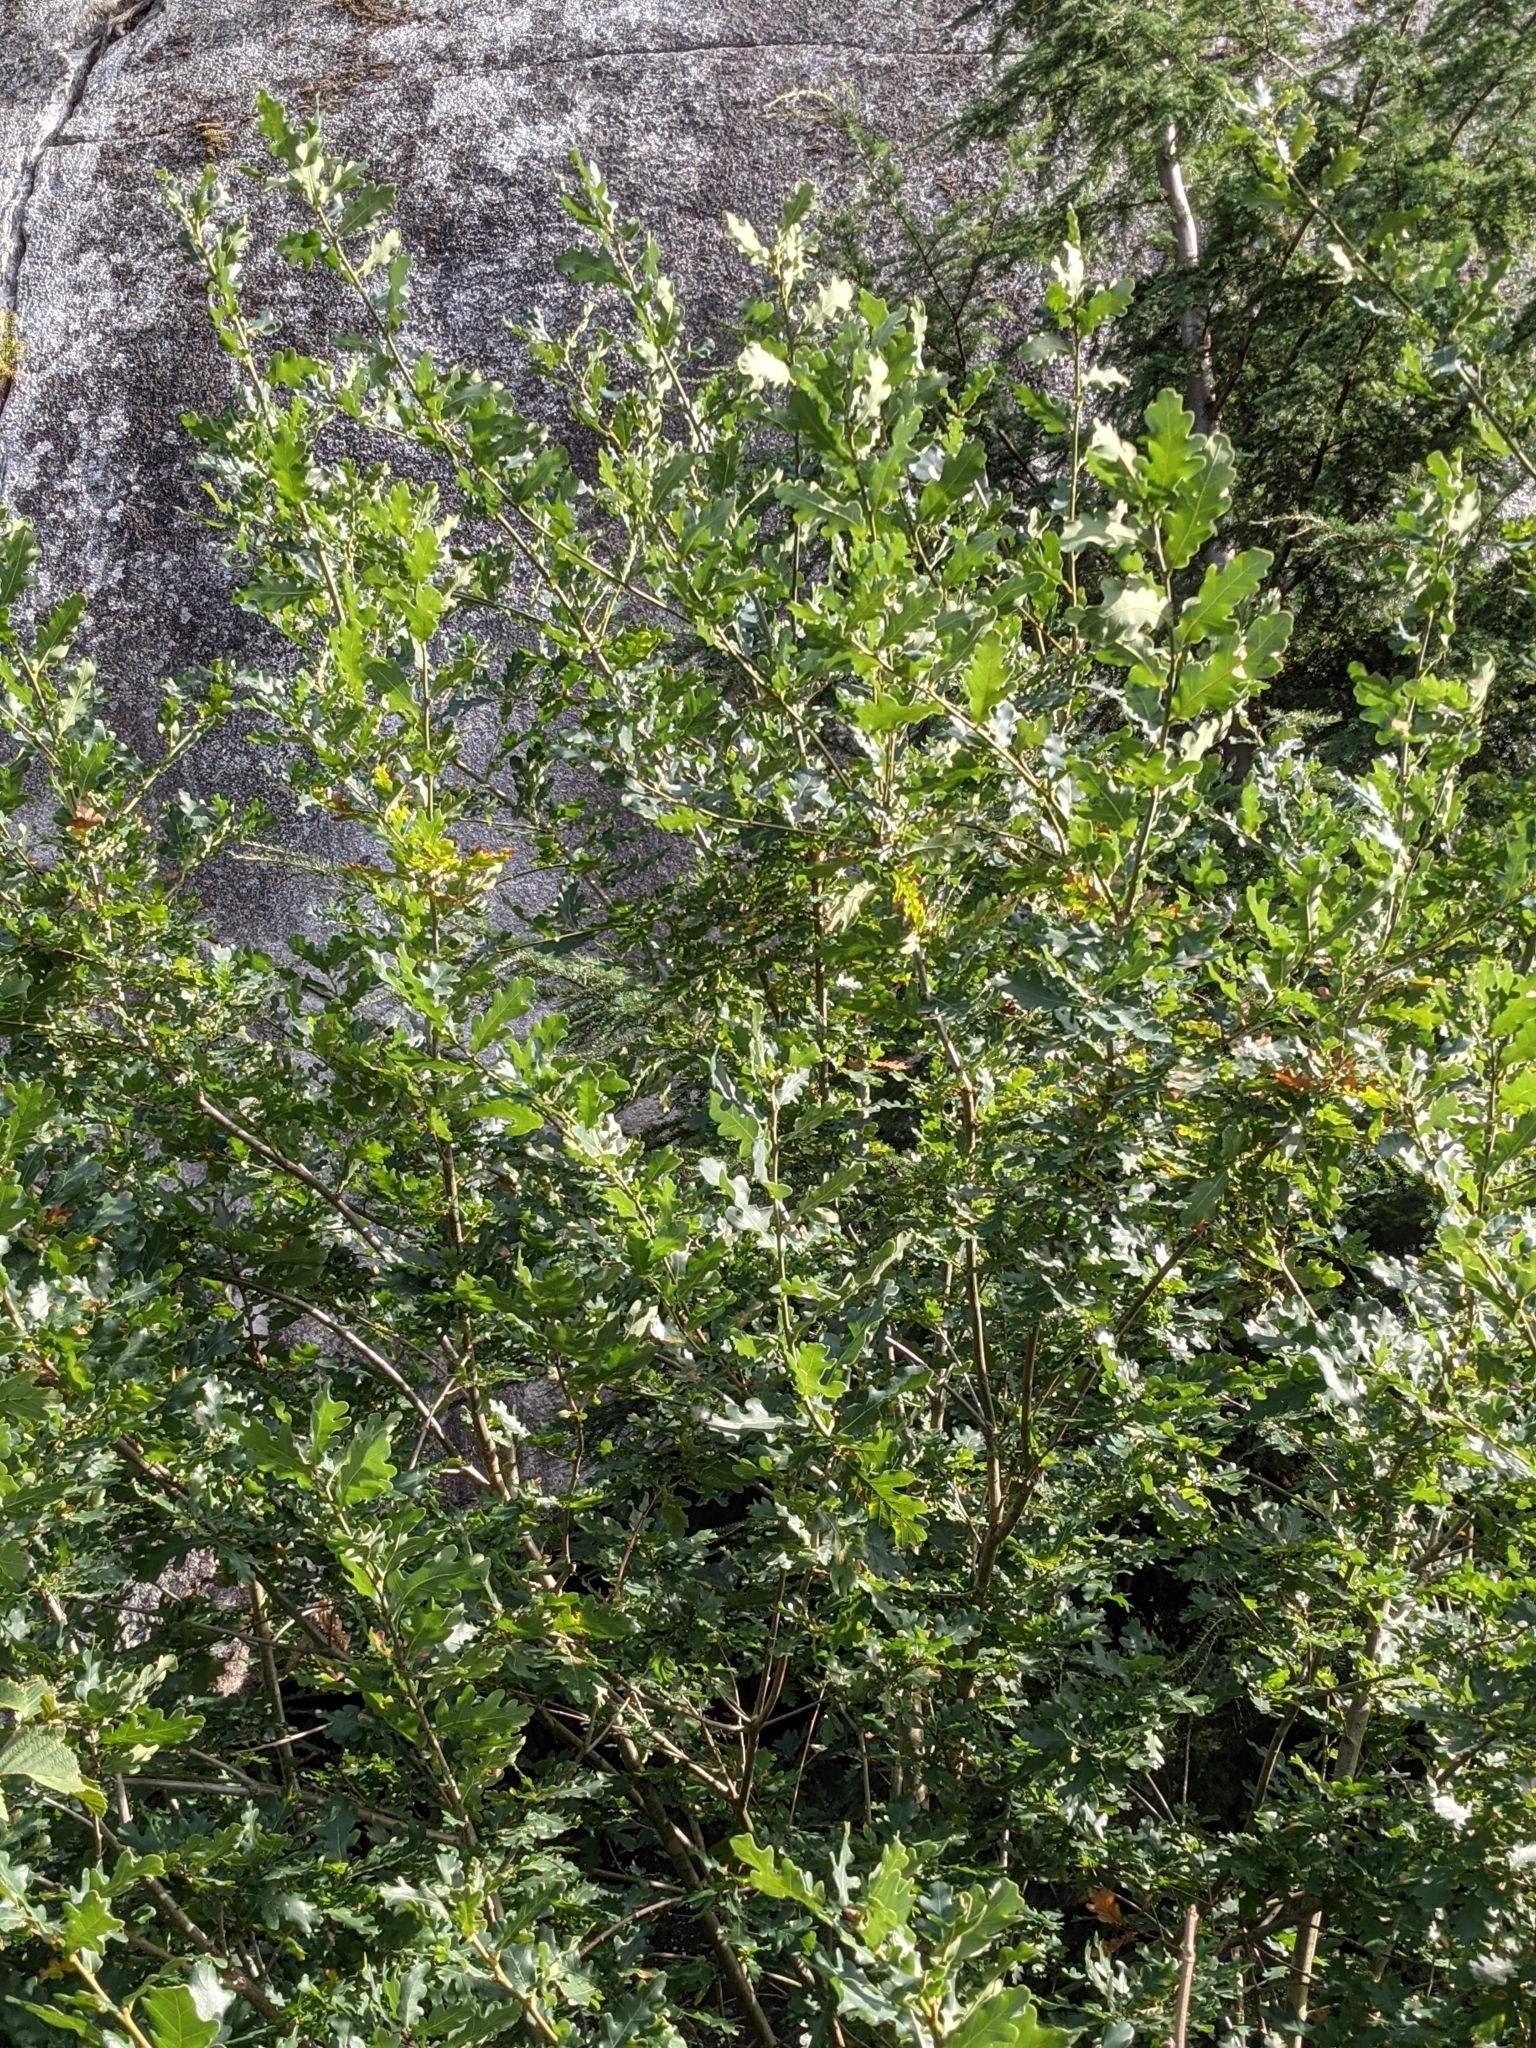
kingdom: Plantae
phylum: Tracheophyta
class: Magnoliopsida
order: Fagales
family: Fagaceae
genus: Quercus
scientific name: Quercus robur
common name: Pedunculate oak
